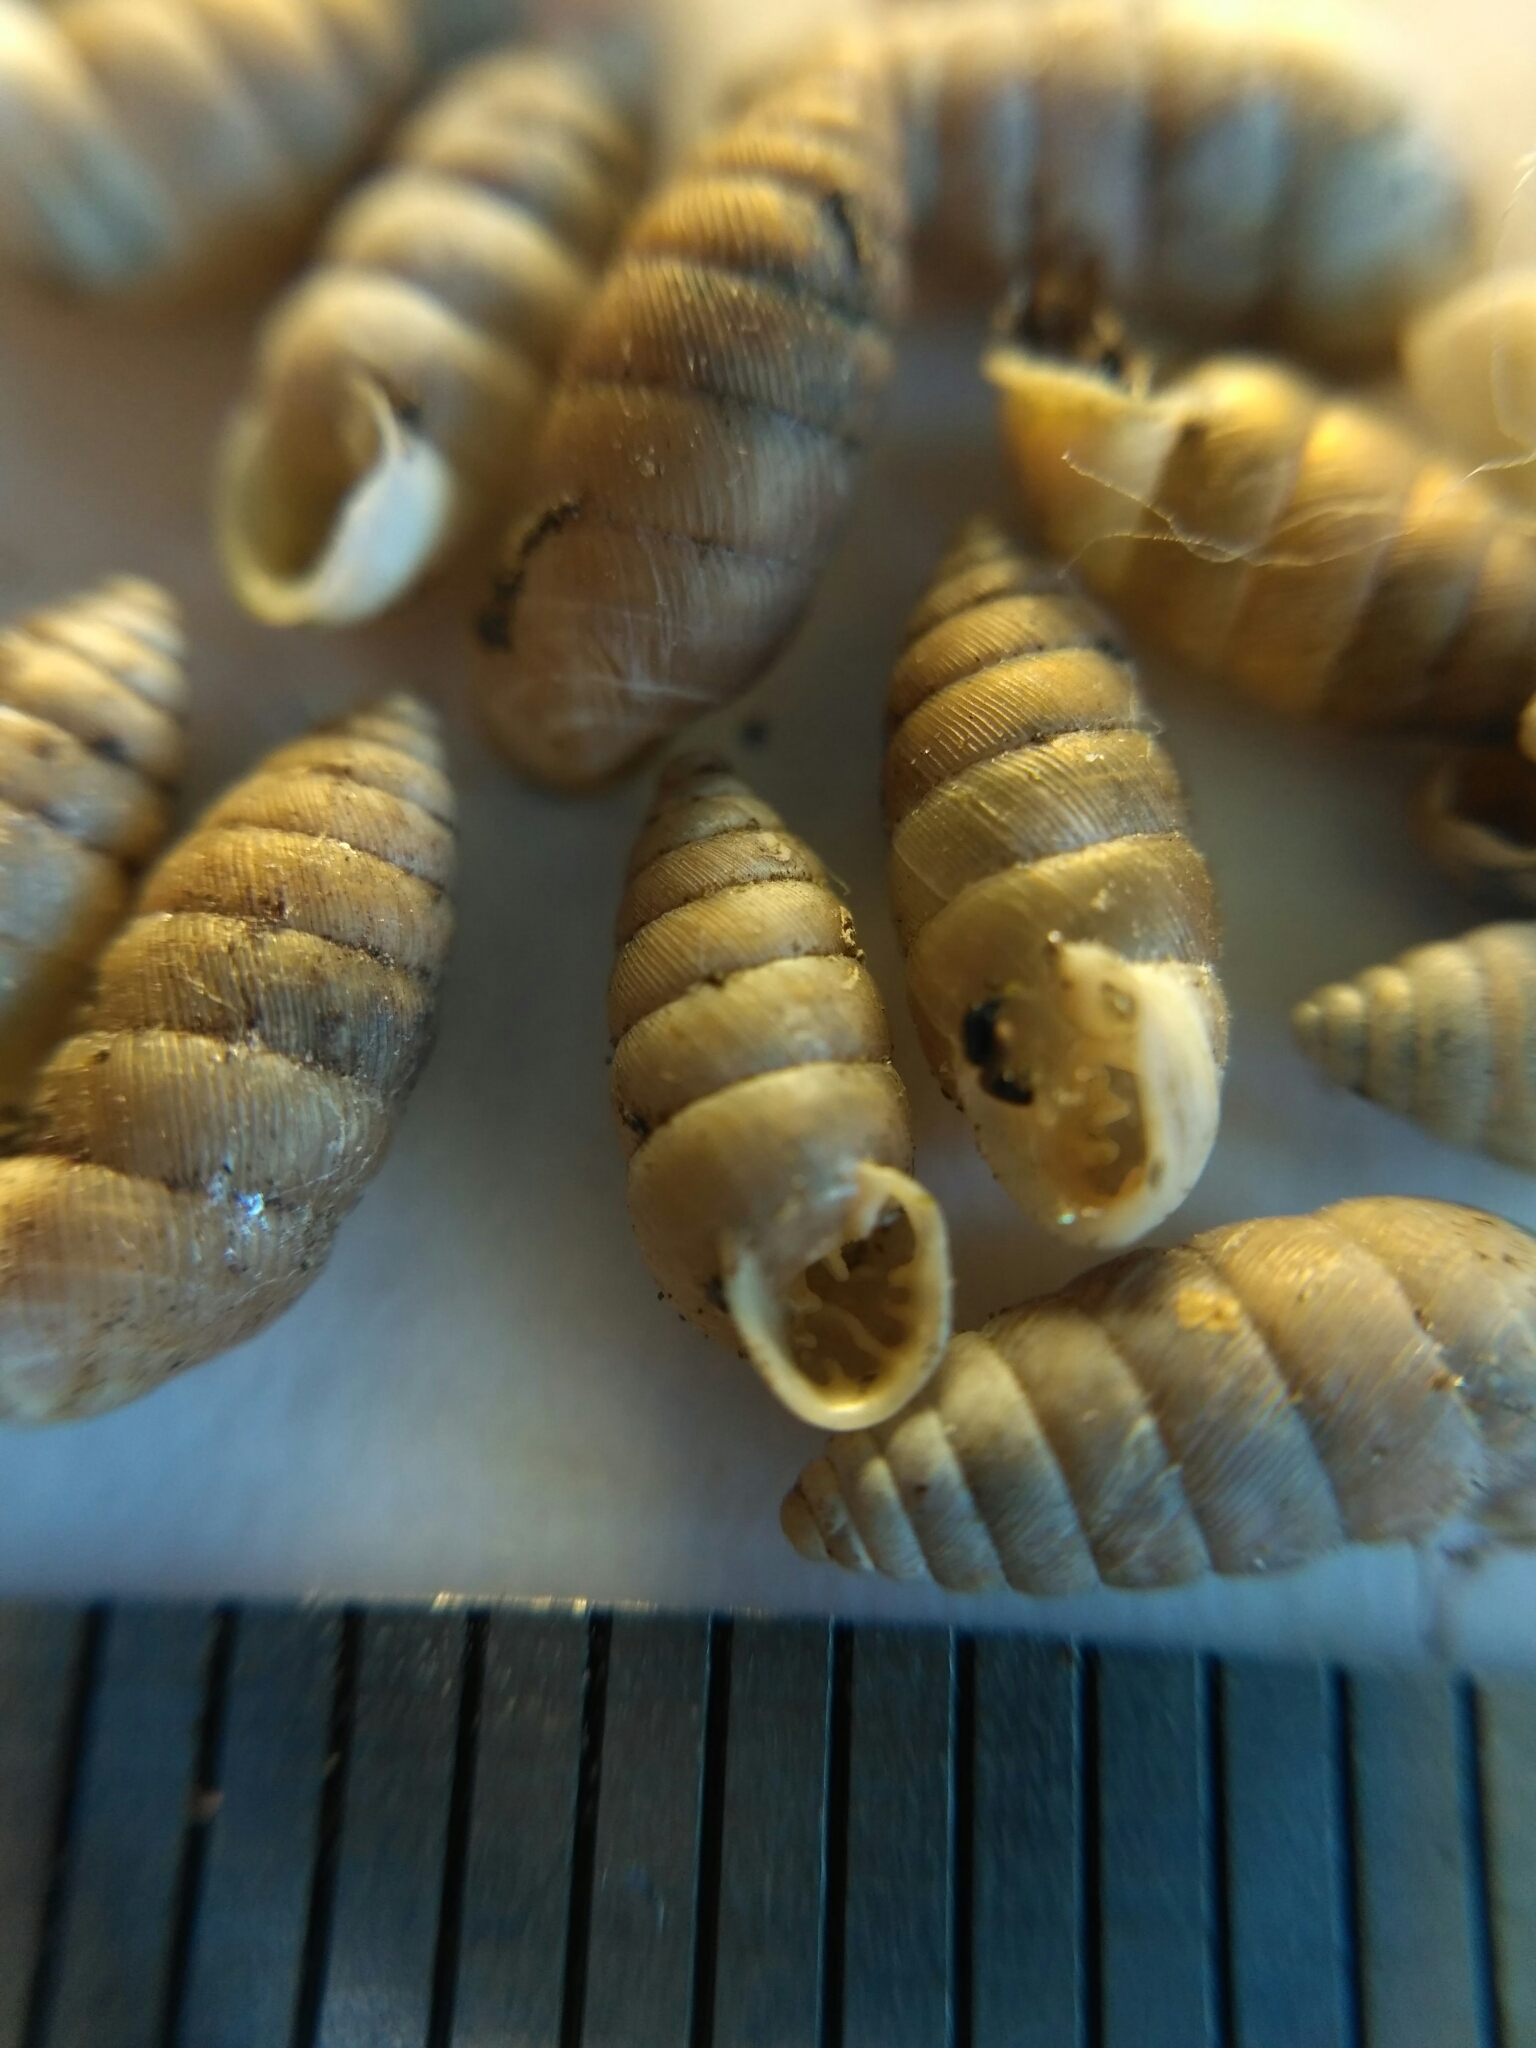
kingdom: Animalia
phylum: Mollusca
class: Gastropoda
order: Stylommatophora
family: Chondrinidae
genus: Granaria
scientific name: Granaria frumentum
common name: An air-breathing land snail
